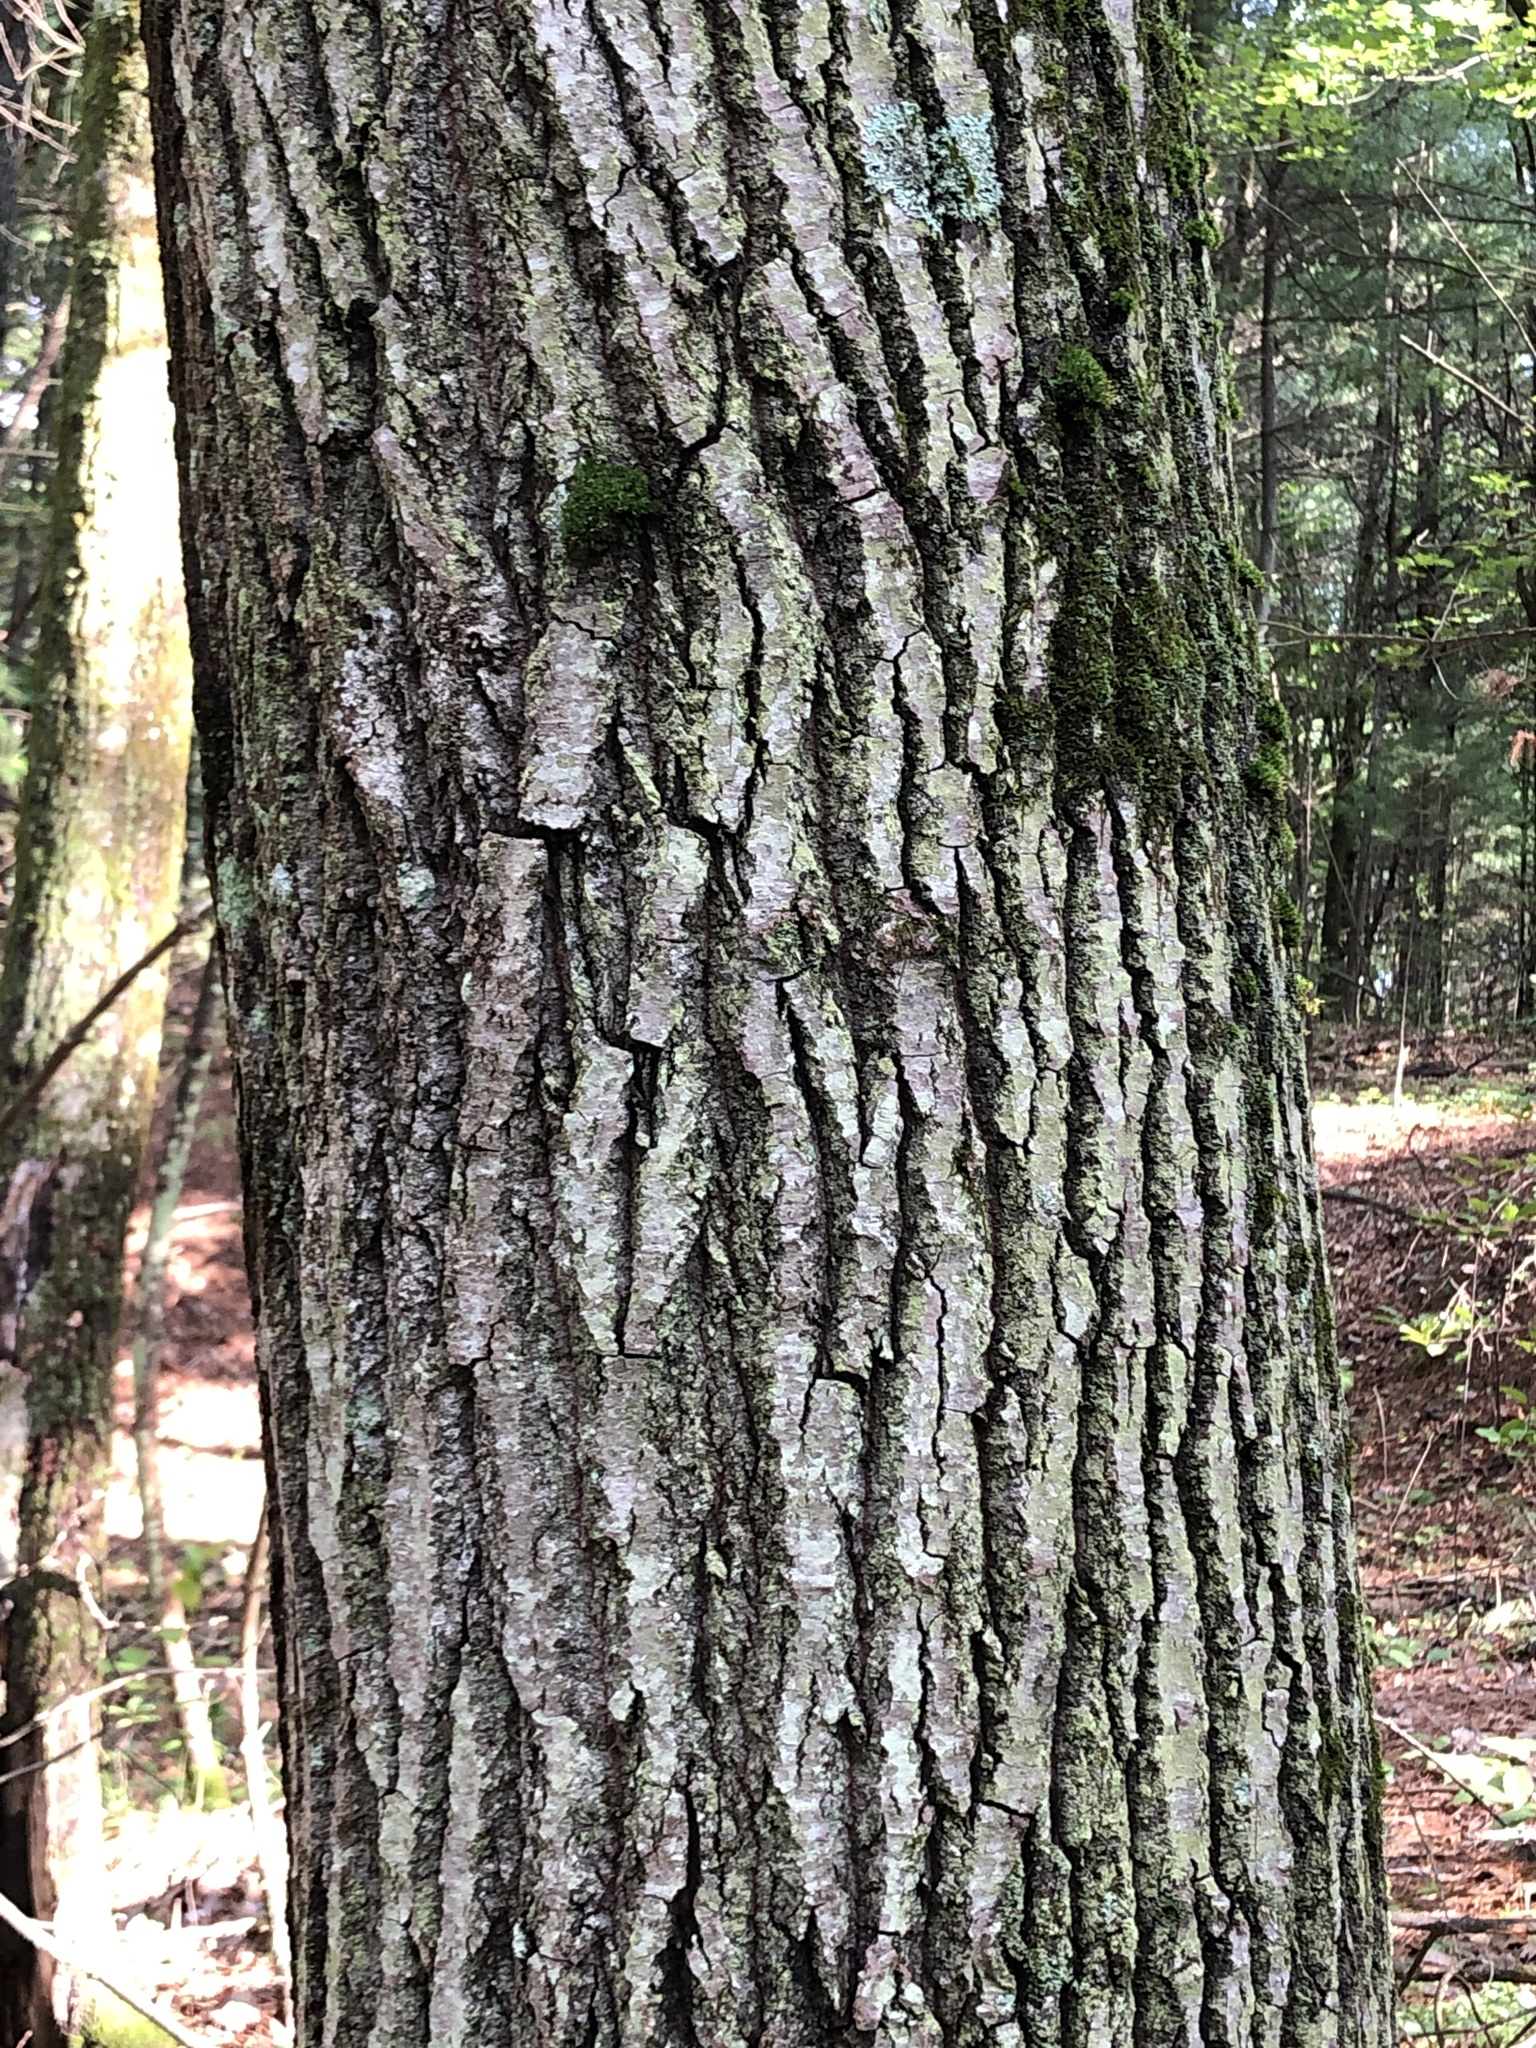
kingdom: Plantae
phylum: Tracheophyta
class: Magnoliopsida
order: Malpighiales
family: Salicaceae
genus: Populus
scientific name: Populus grandidentata
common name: Bigtooth aspen
